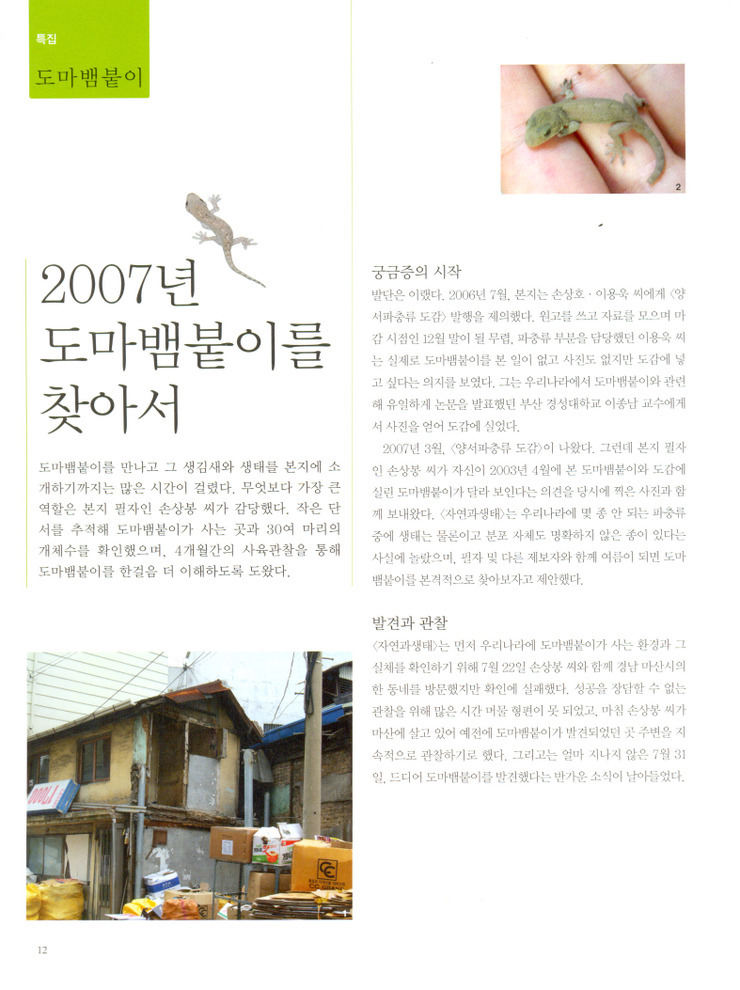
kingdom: Animalia
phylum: Chordata
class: Squamata
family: Gekkonidae
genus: Gekko
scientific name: Gekko japonicus
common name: Schlegel's japanese gecko
